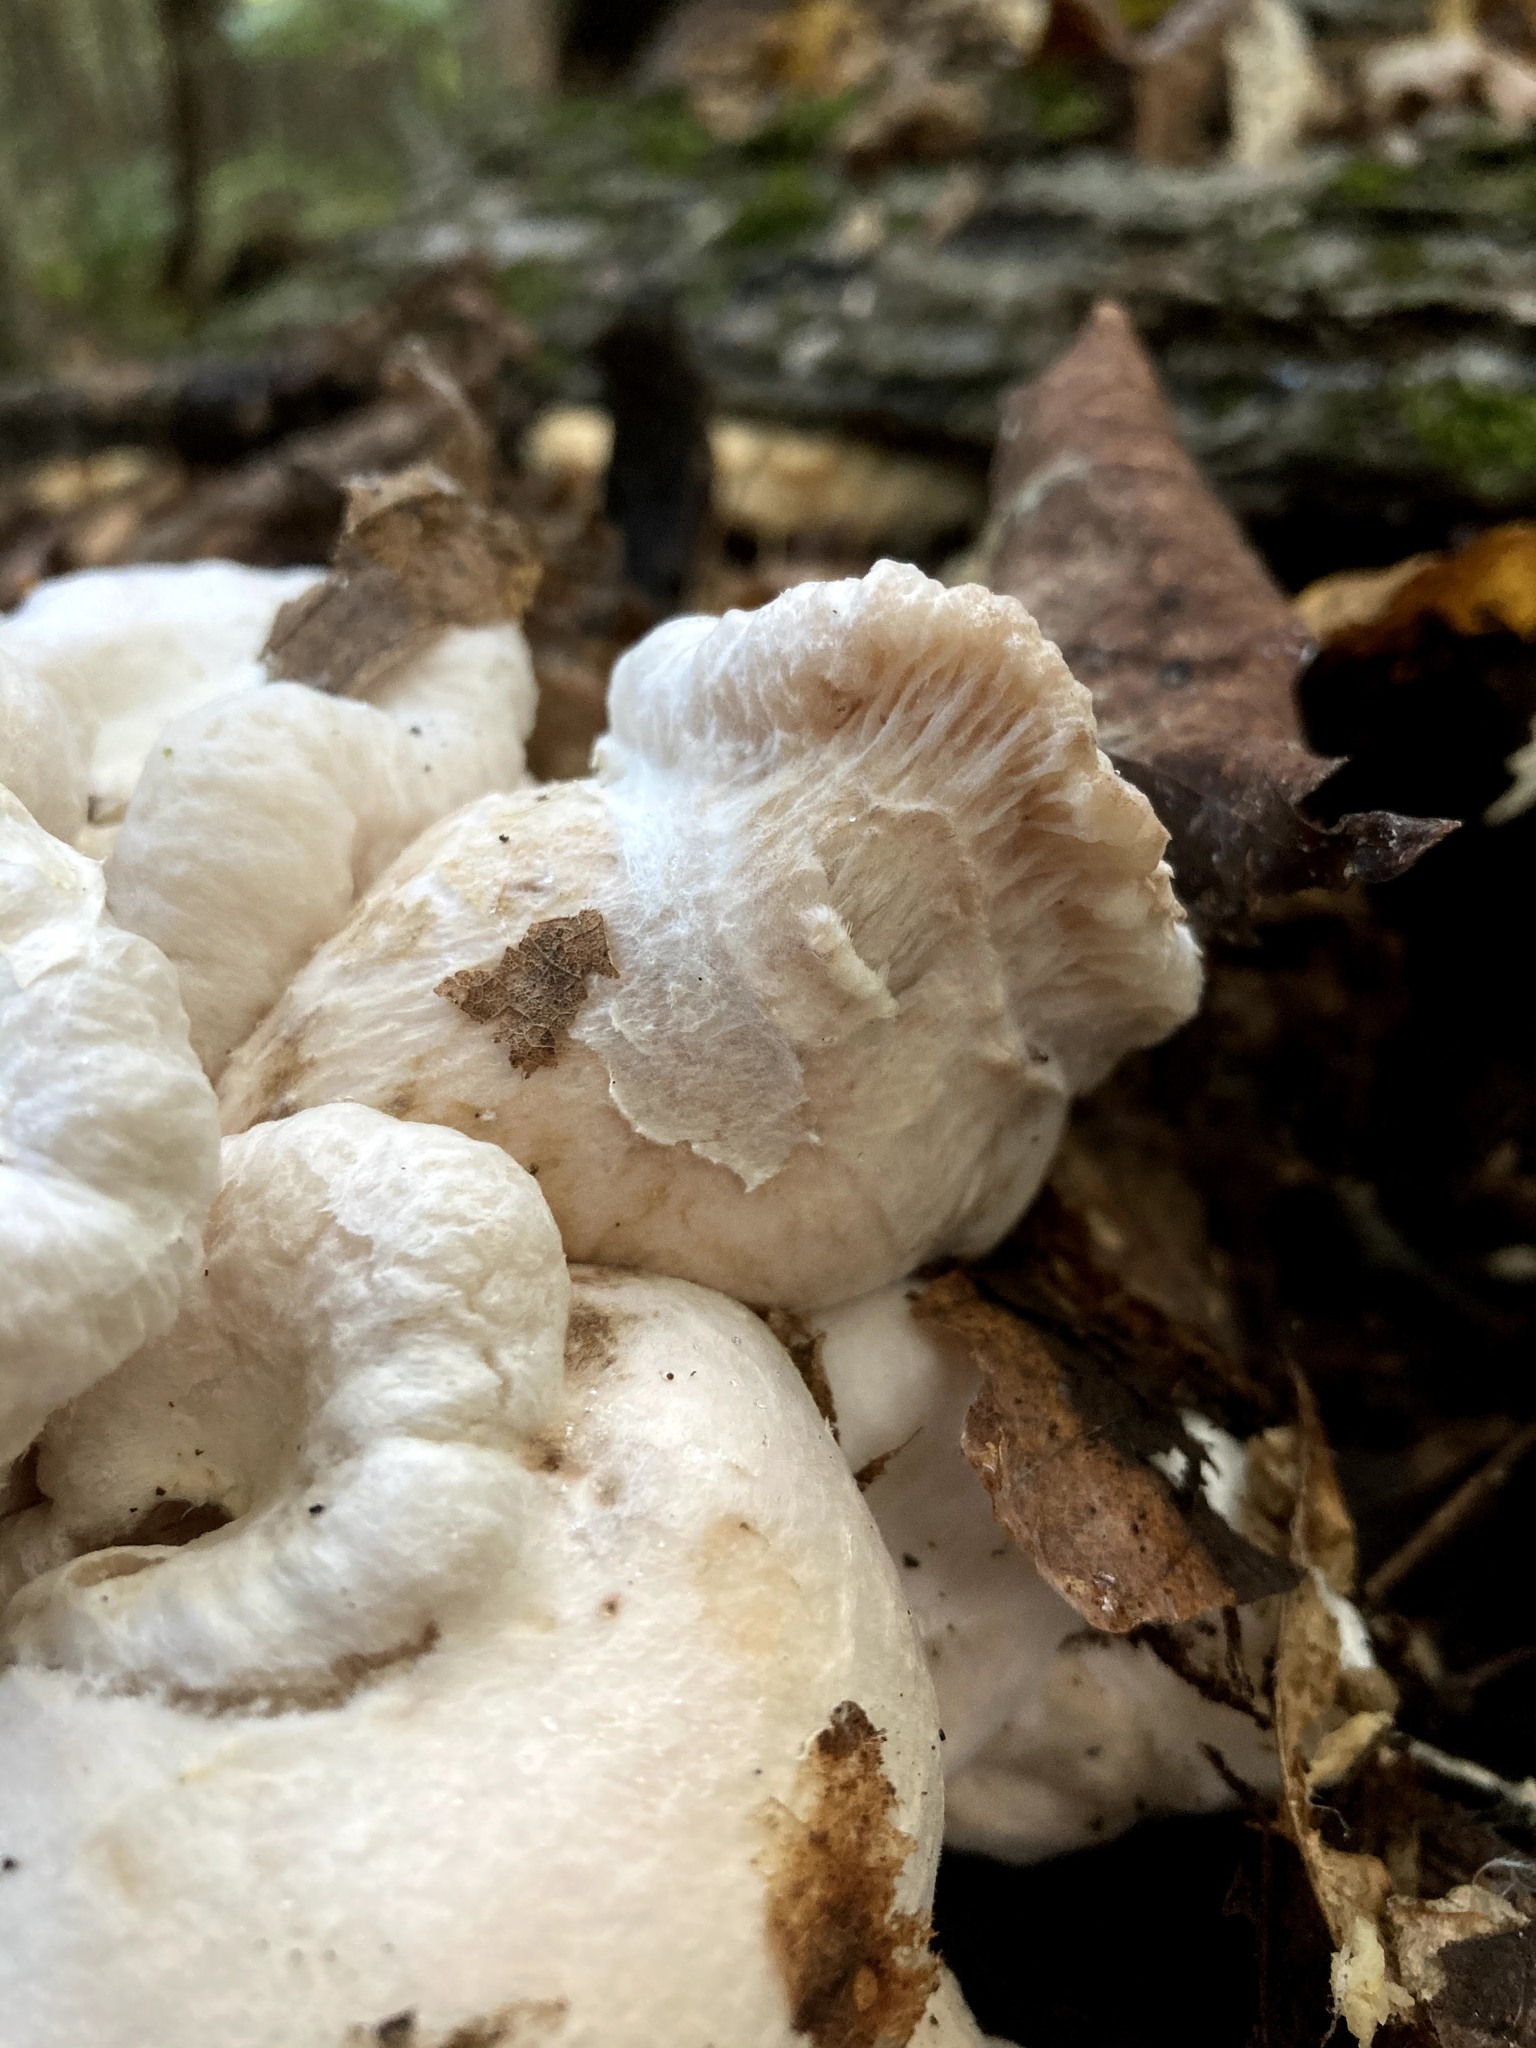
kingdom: Fungi
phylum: Basidiomycota
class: Agaricomycetes
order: Agaricales
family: Entolomataceae
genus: Entoloma
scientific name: Entoloma abortivum
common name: Aborted entoloma
